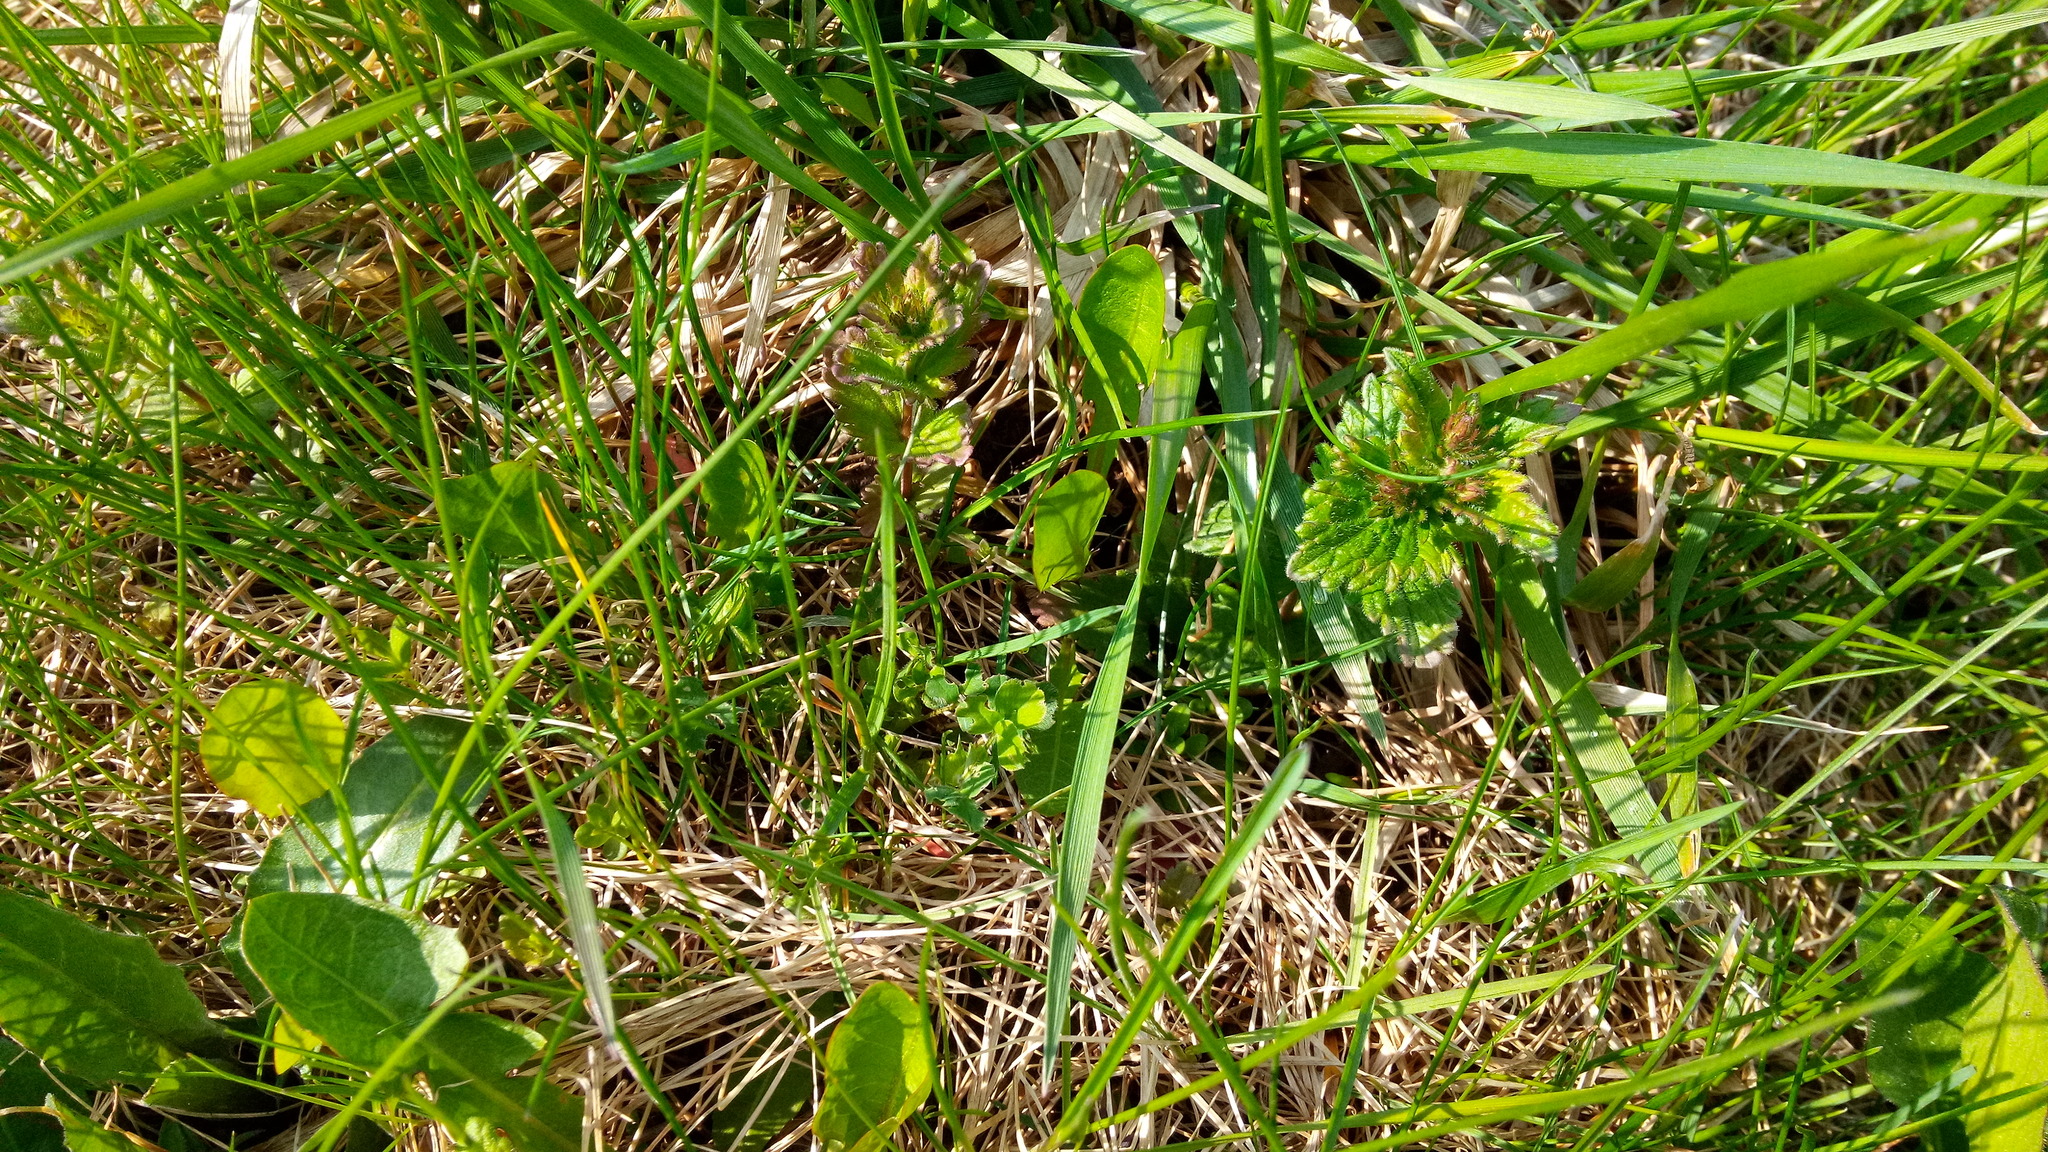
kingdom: Plantae
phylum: Tracheophyta
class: Magnoliopsida
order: Lamiales
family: Plantaginaceae
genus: Veronica
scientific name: Veronica chamaedrys
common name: Germander speedwell
